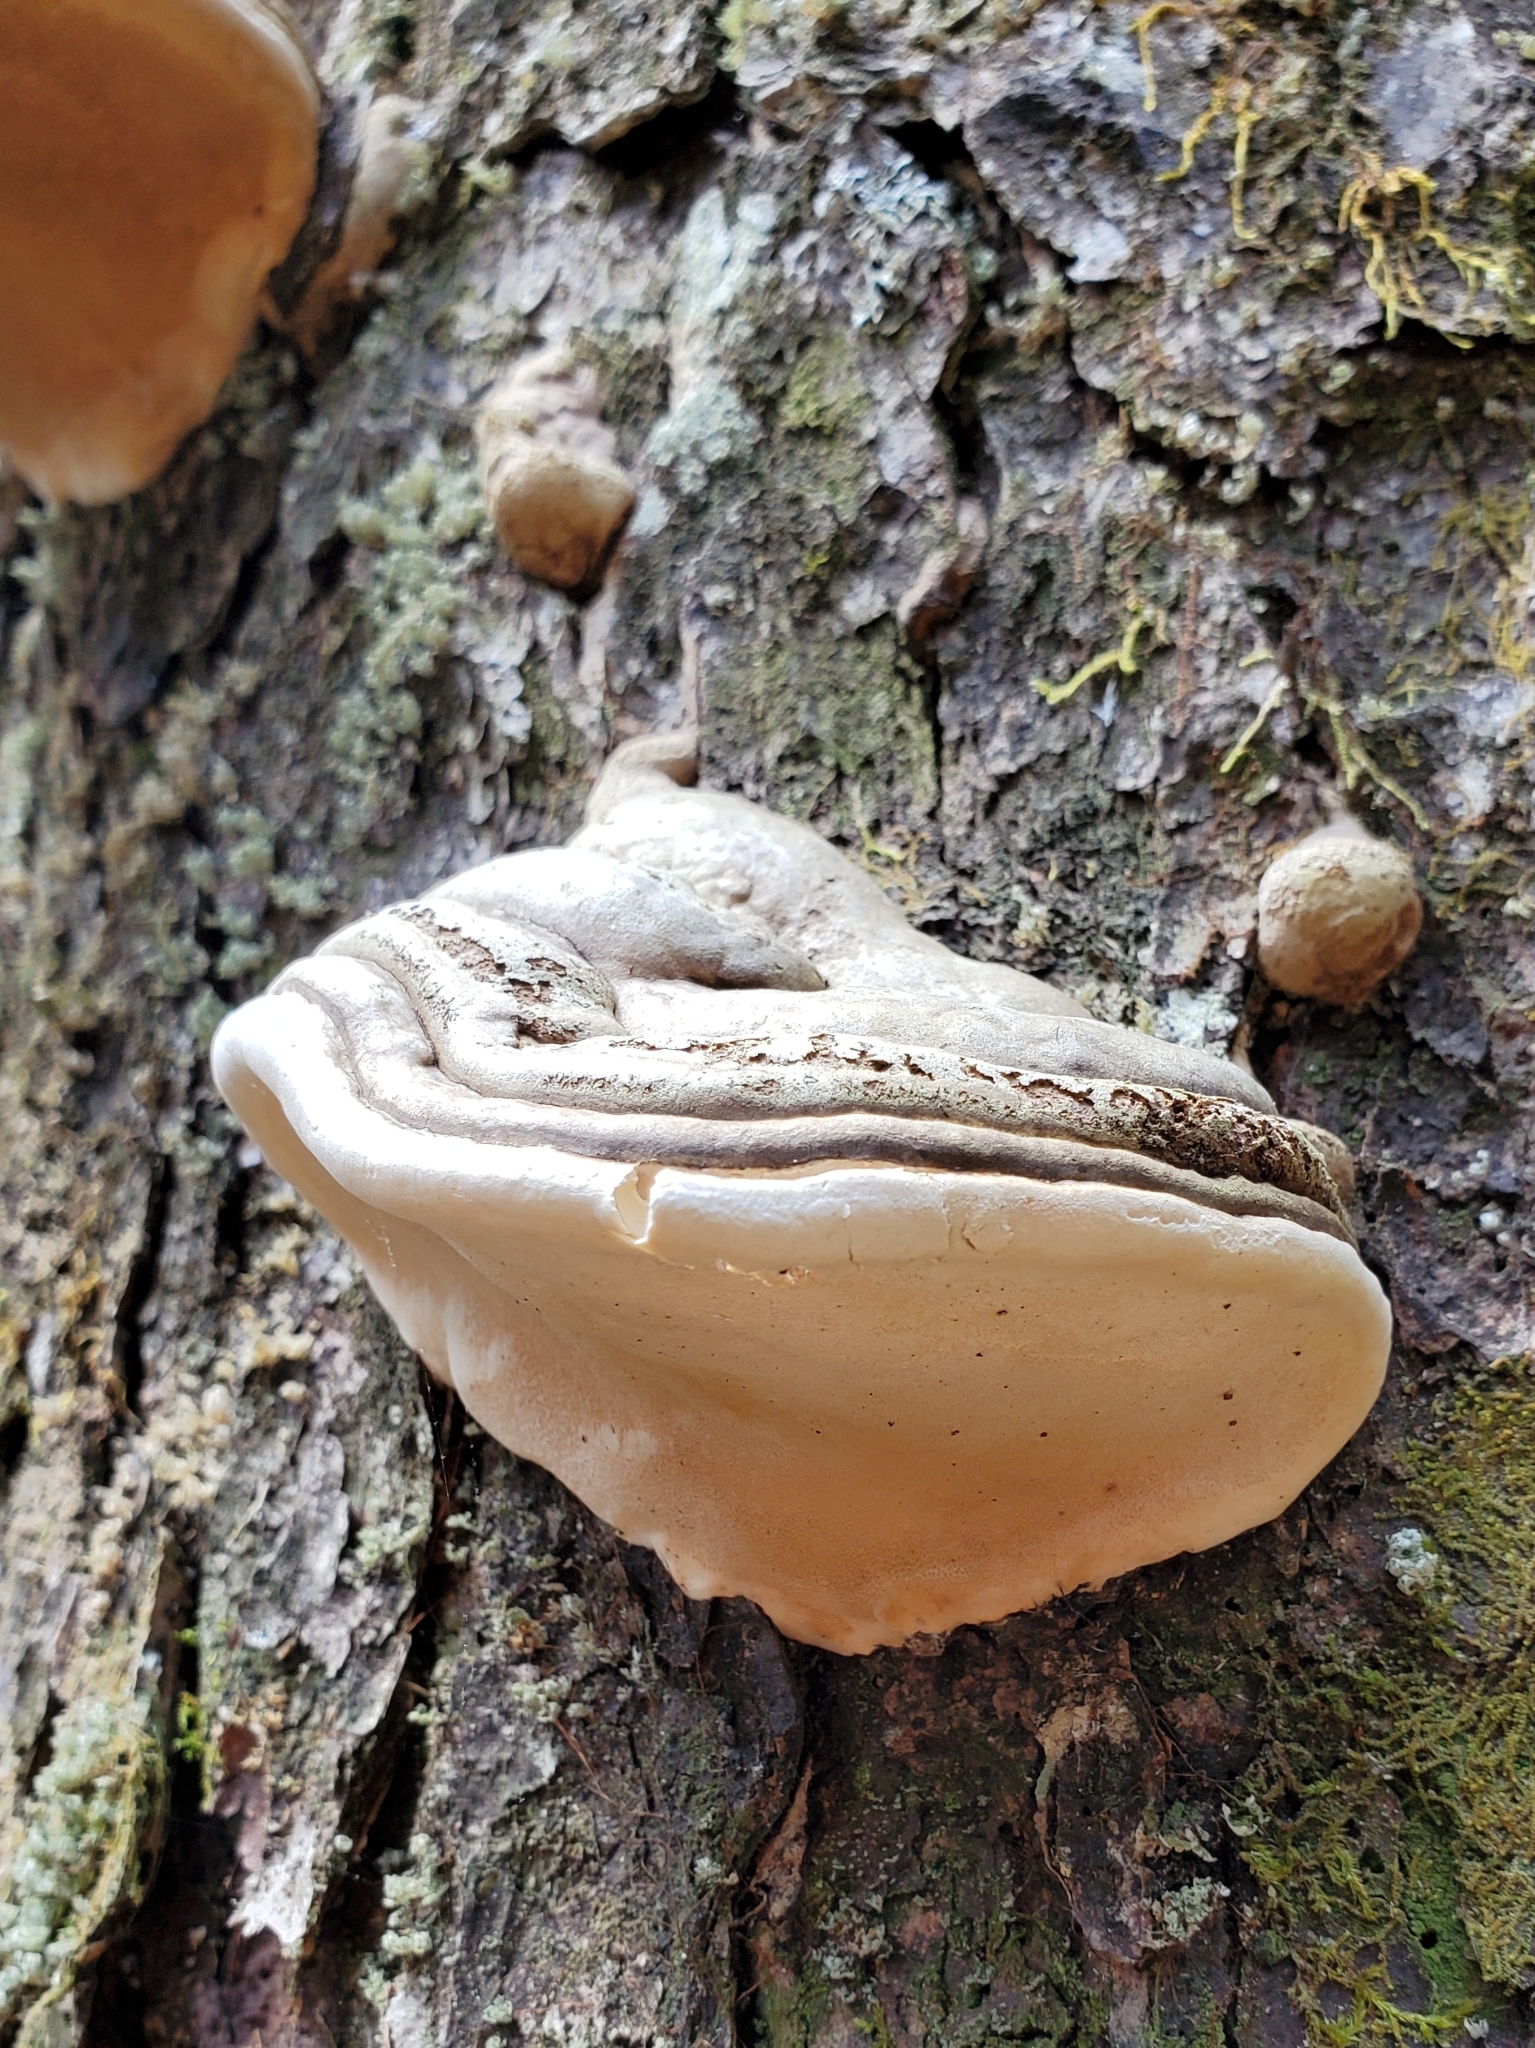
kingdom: Fungi
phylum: Basidiomycota
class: Agaricomycetes
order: Polyporales
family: Polyporaceae
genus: Fomes
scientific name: Fomes fomentarius
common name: Hoof fungus
